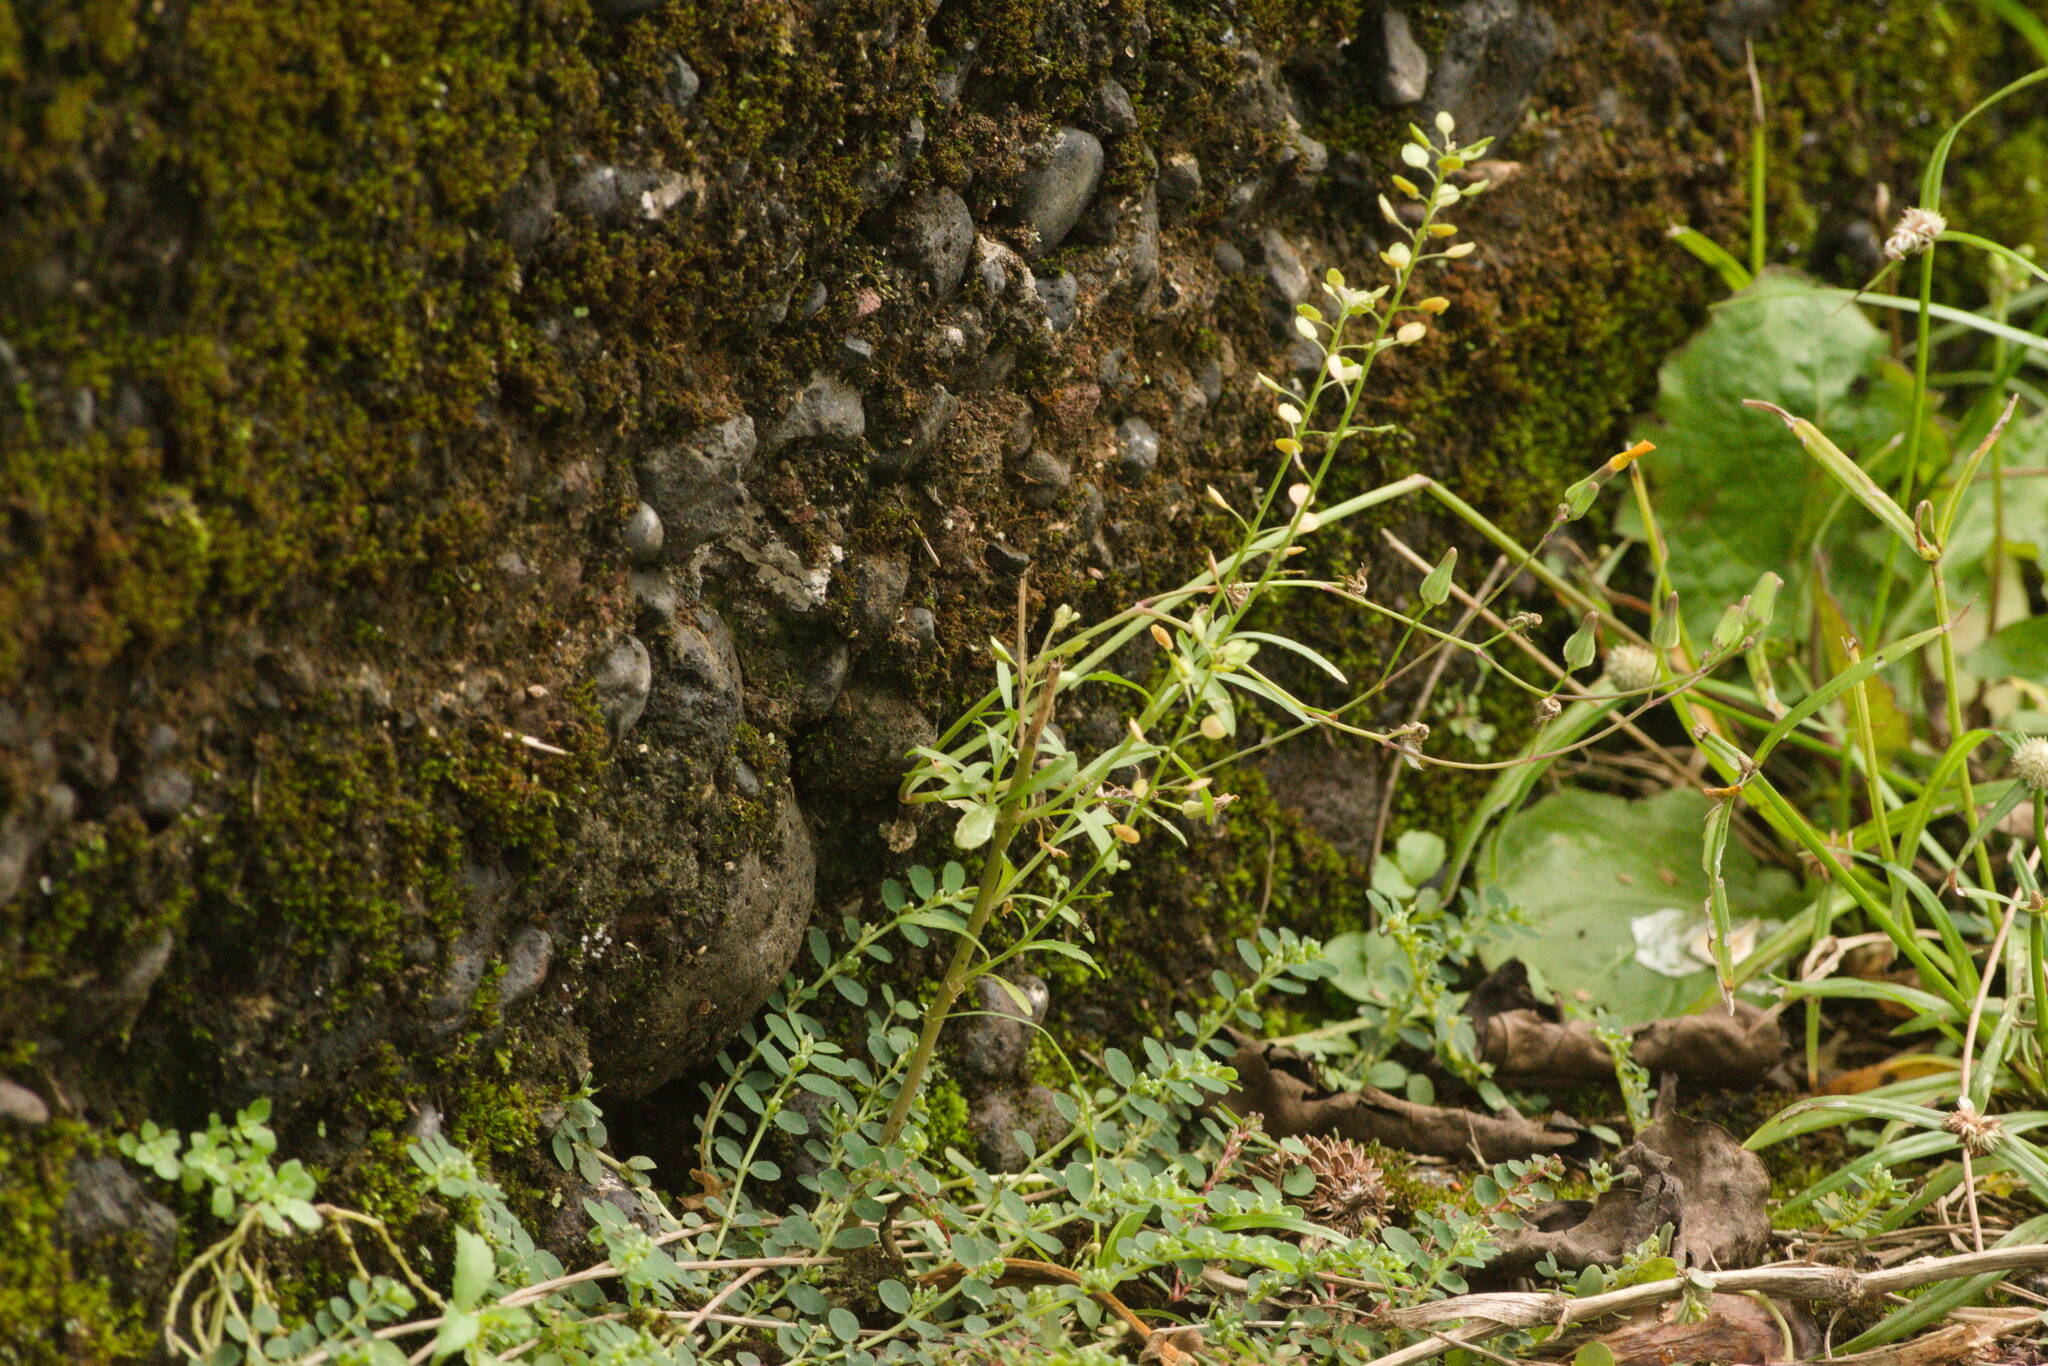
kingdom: Plantae
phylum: Tracheophyta
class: Magnoliopsida
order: Brassicales
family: Brassicaceae
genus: Lepidium
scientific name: Lepidium virginicum
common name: Least pepperwort
